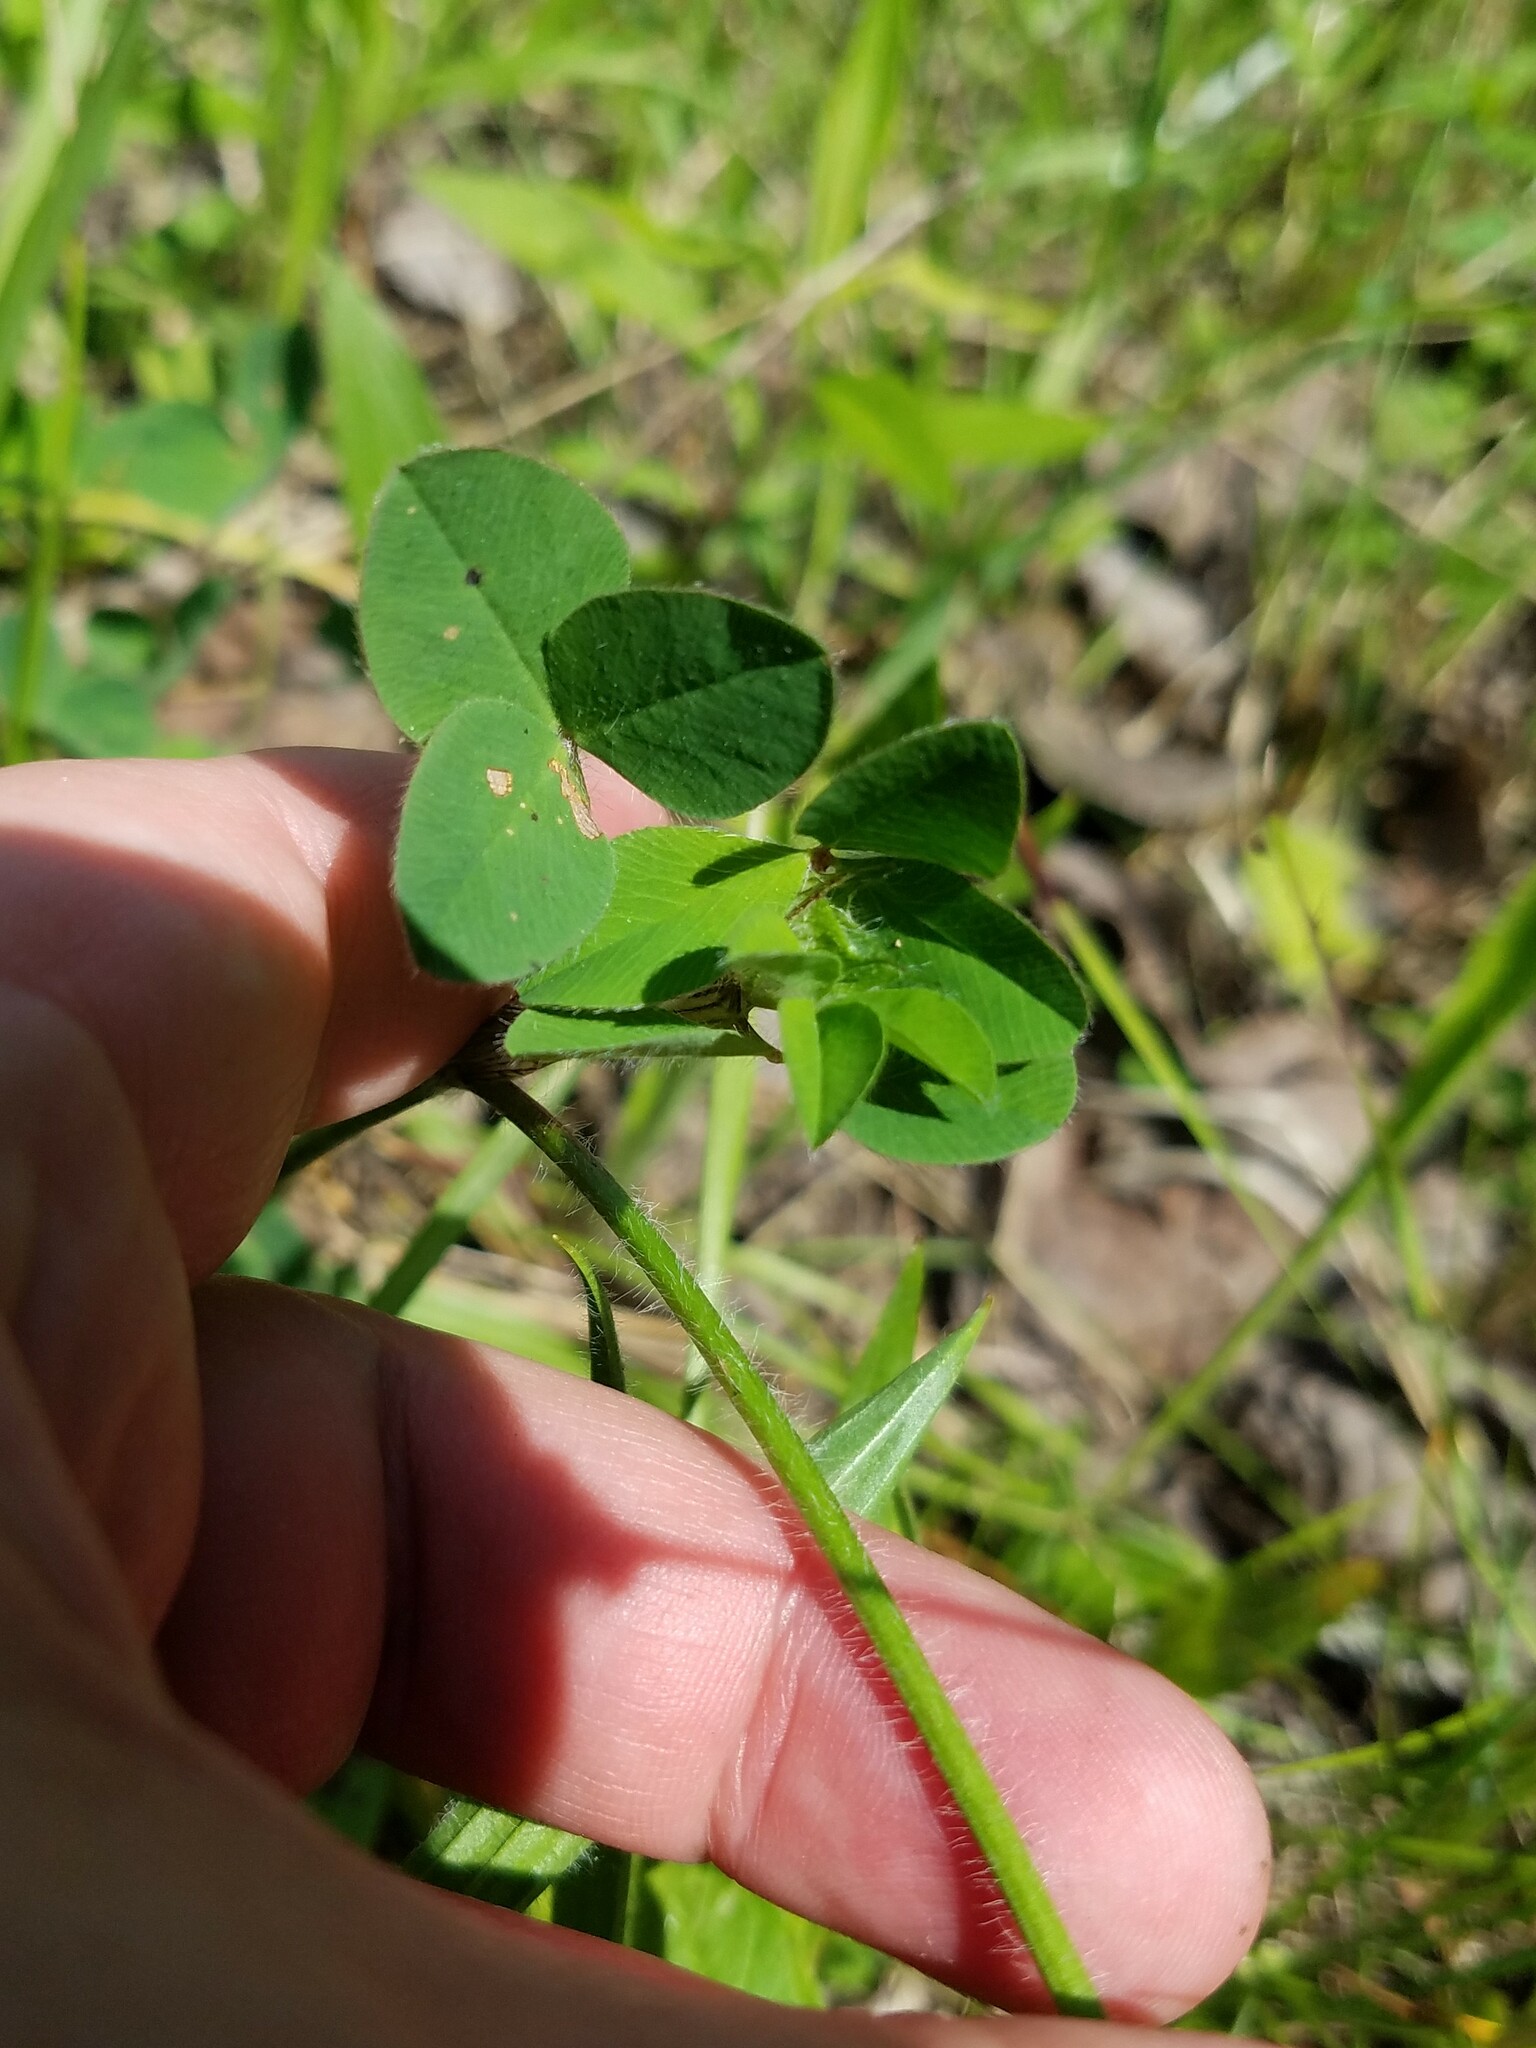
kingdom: Plantae
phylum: Tracheophyta
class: Magnoliopsida
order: Fabales
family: Fabaceae
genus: Trifolium
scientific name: Trifolium pratense
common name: Red clover
